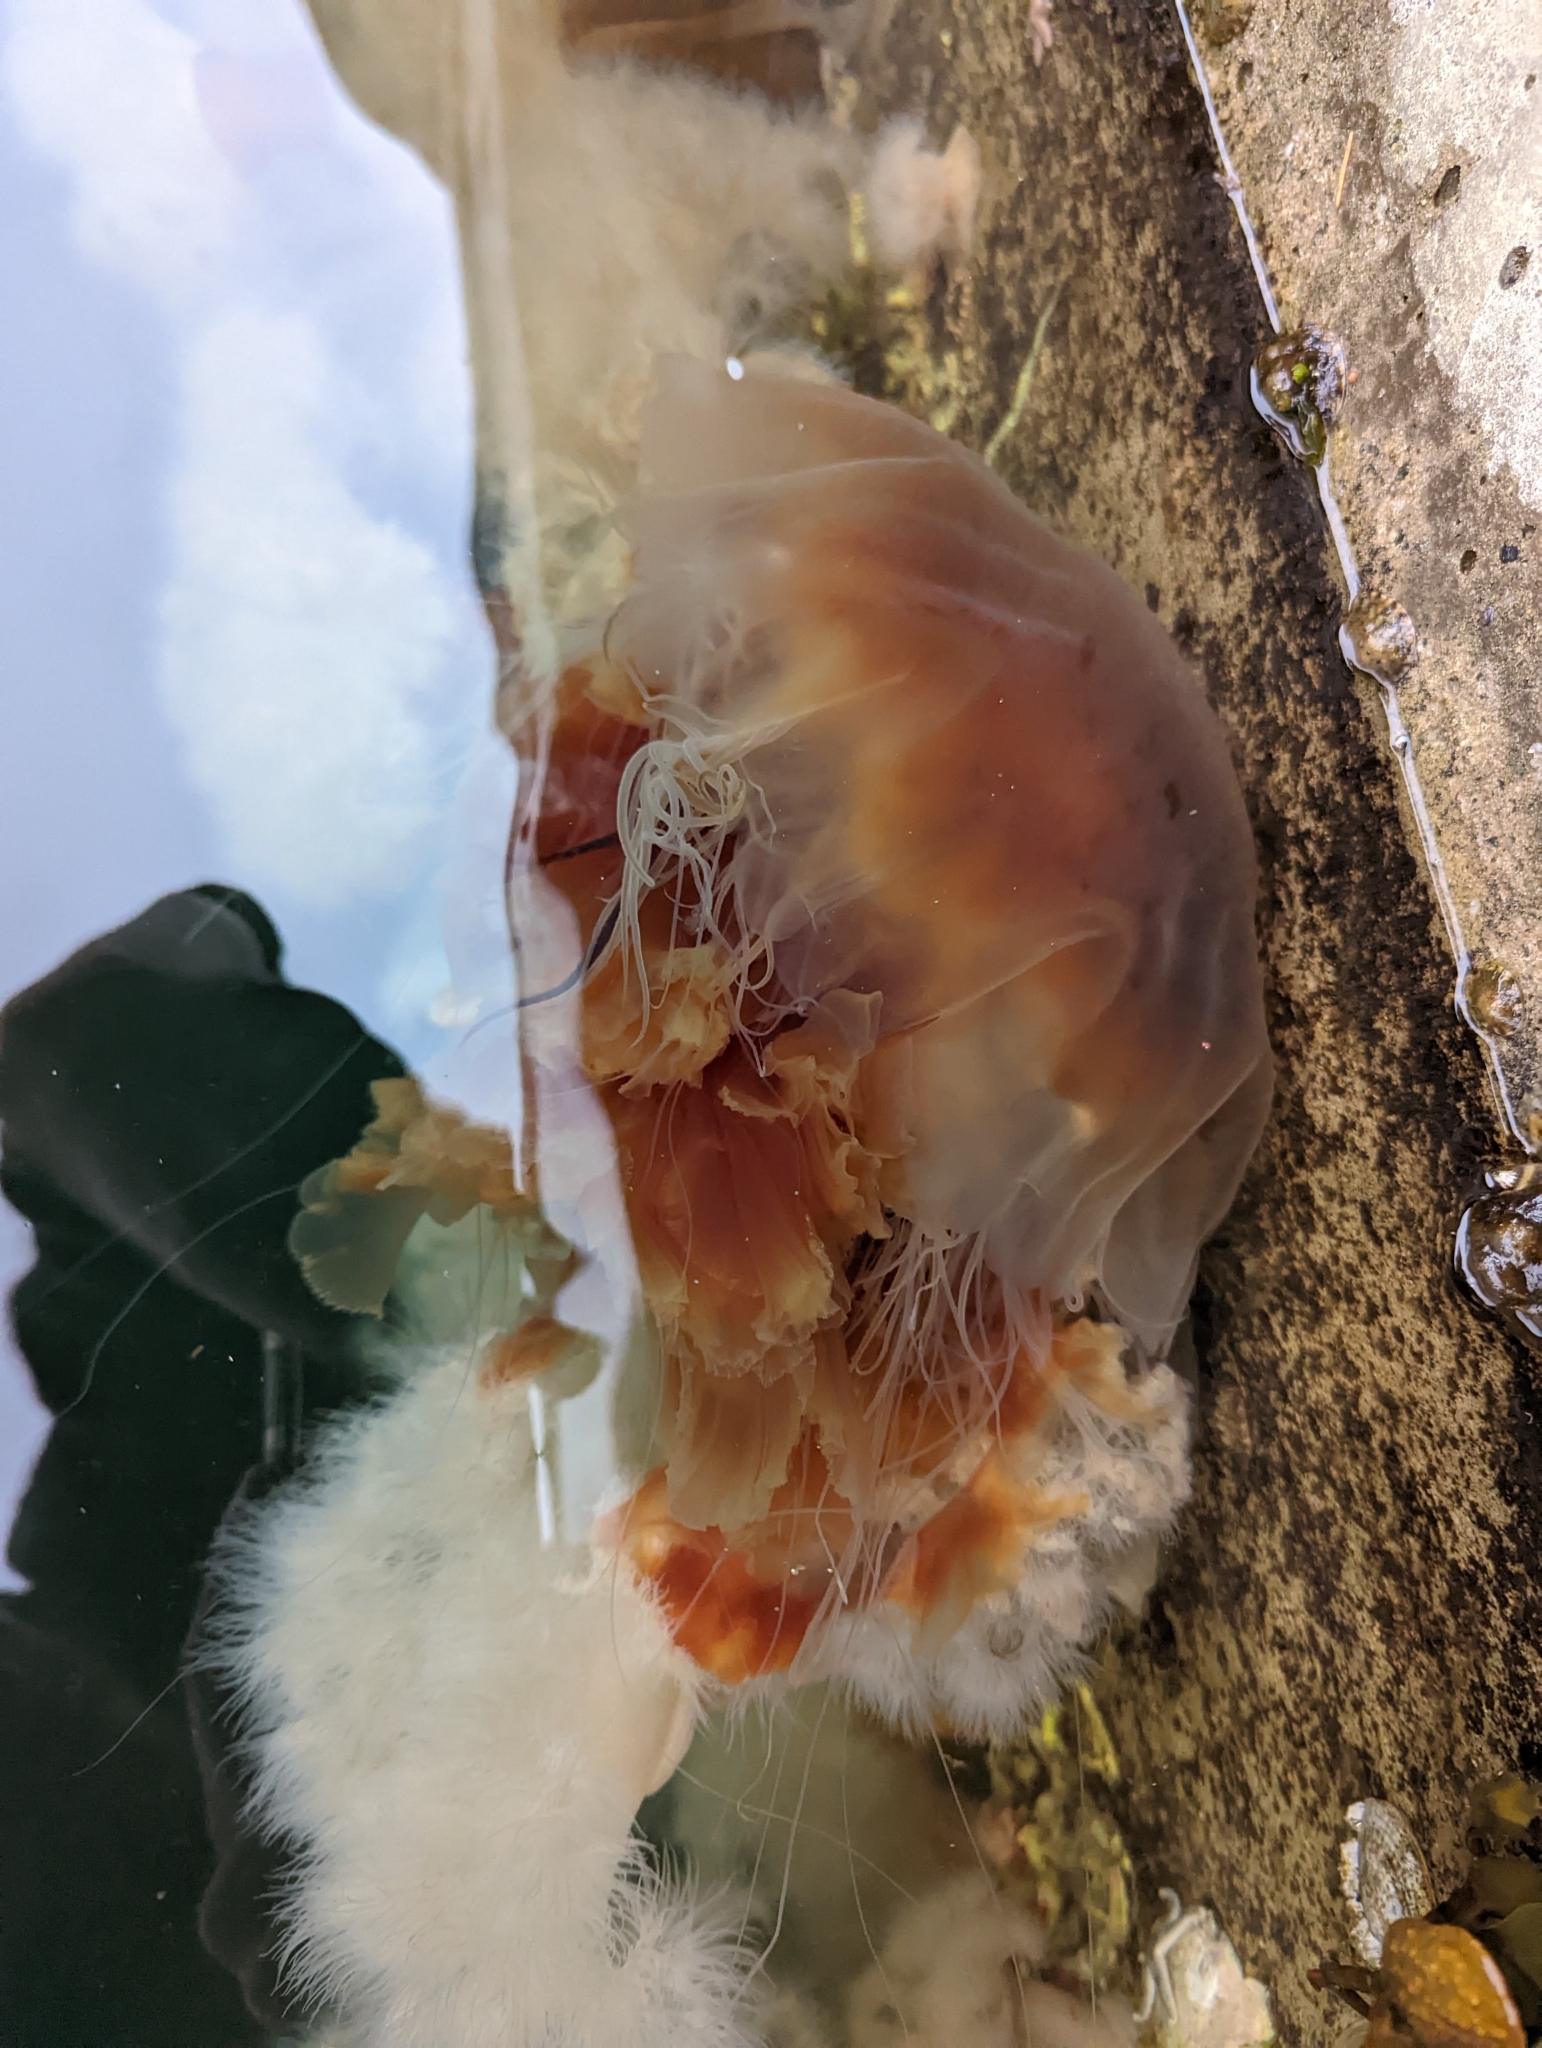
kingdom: Animalia
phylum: Cnidaria
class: Scyphozoa
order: Semaeostomeae
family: Cyaneidae
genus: Cyanea
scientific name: Cyanea ferruginea
